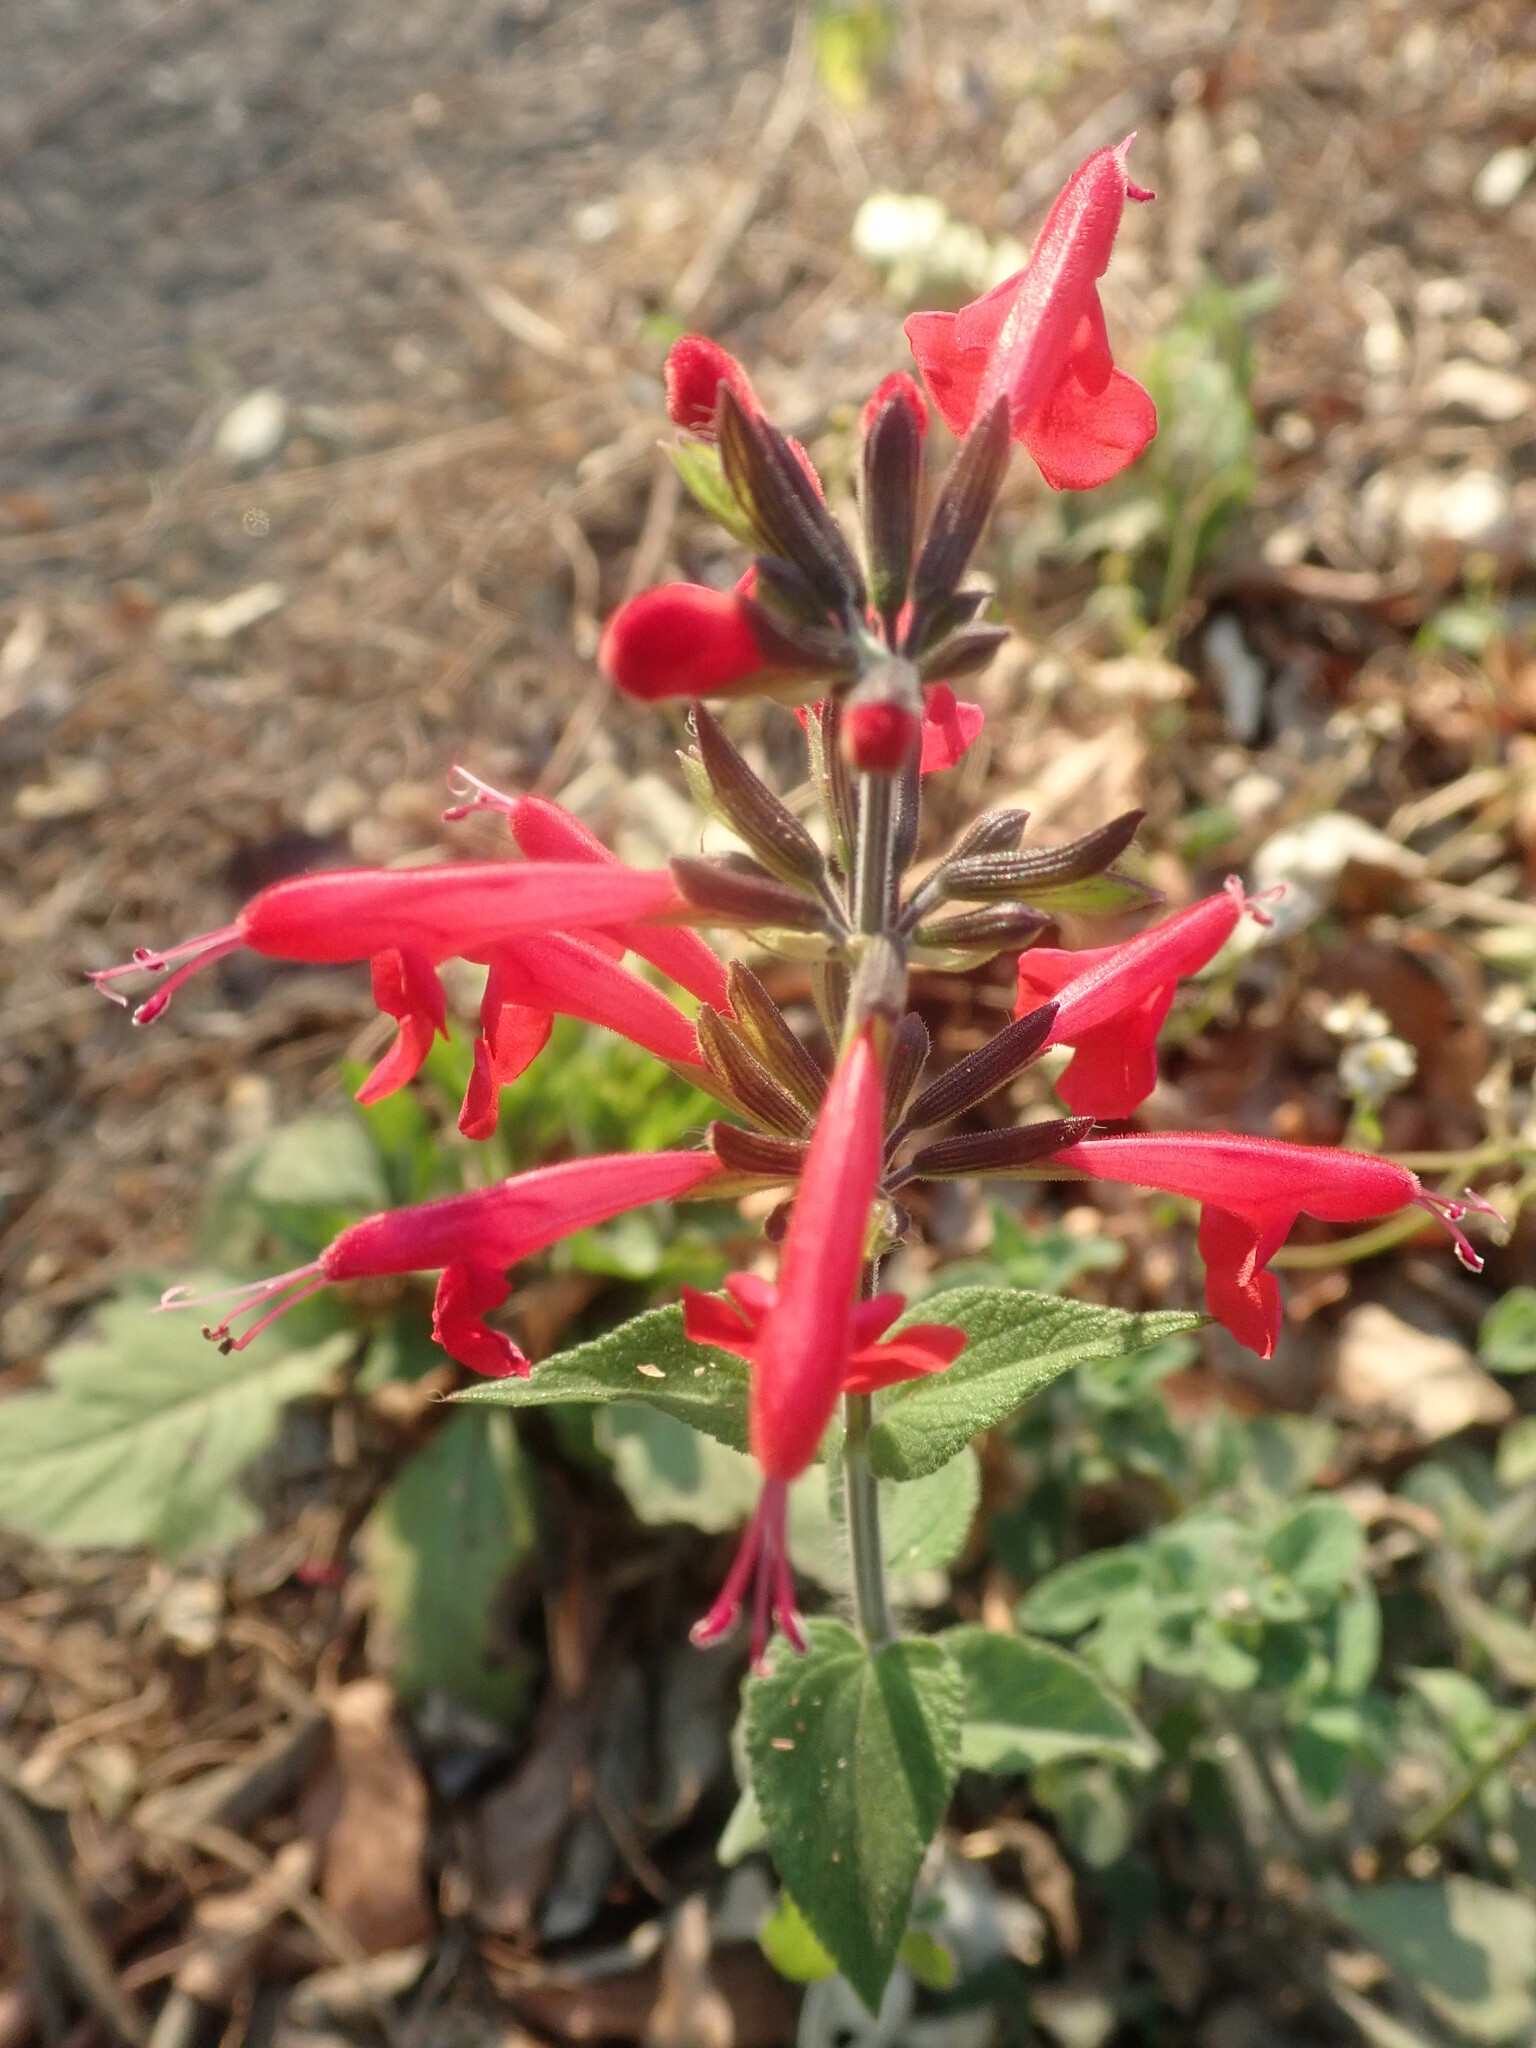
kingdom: Plantae
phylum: Tracheophyta
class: Magnoliopsida
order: Lamiales
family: Lamiaceae
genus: Salvia
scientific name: Salvia coccinea
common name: Blood sage
